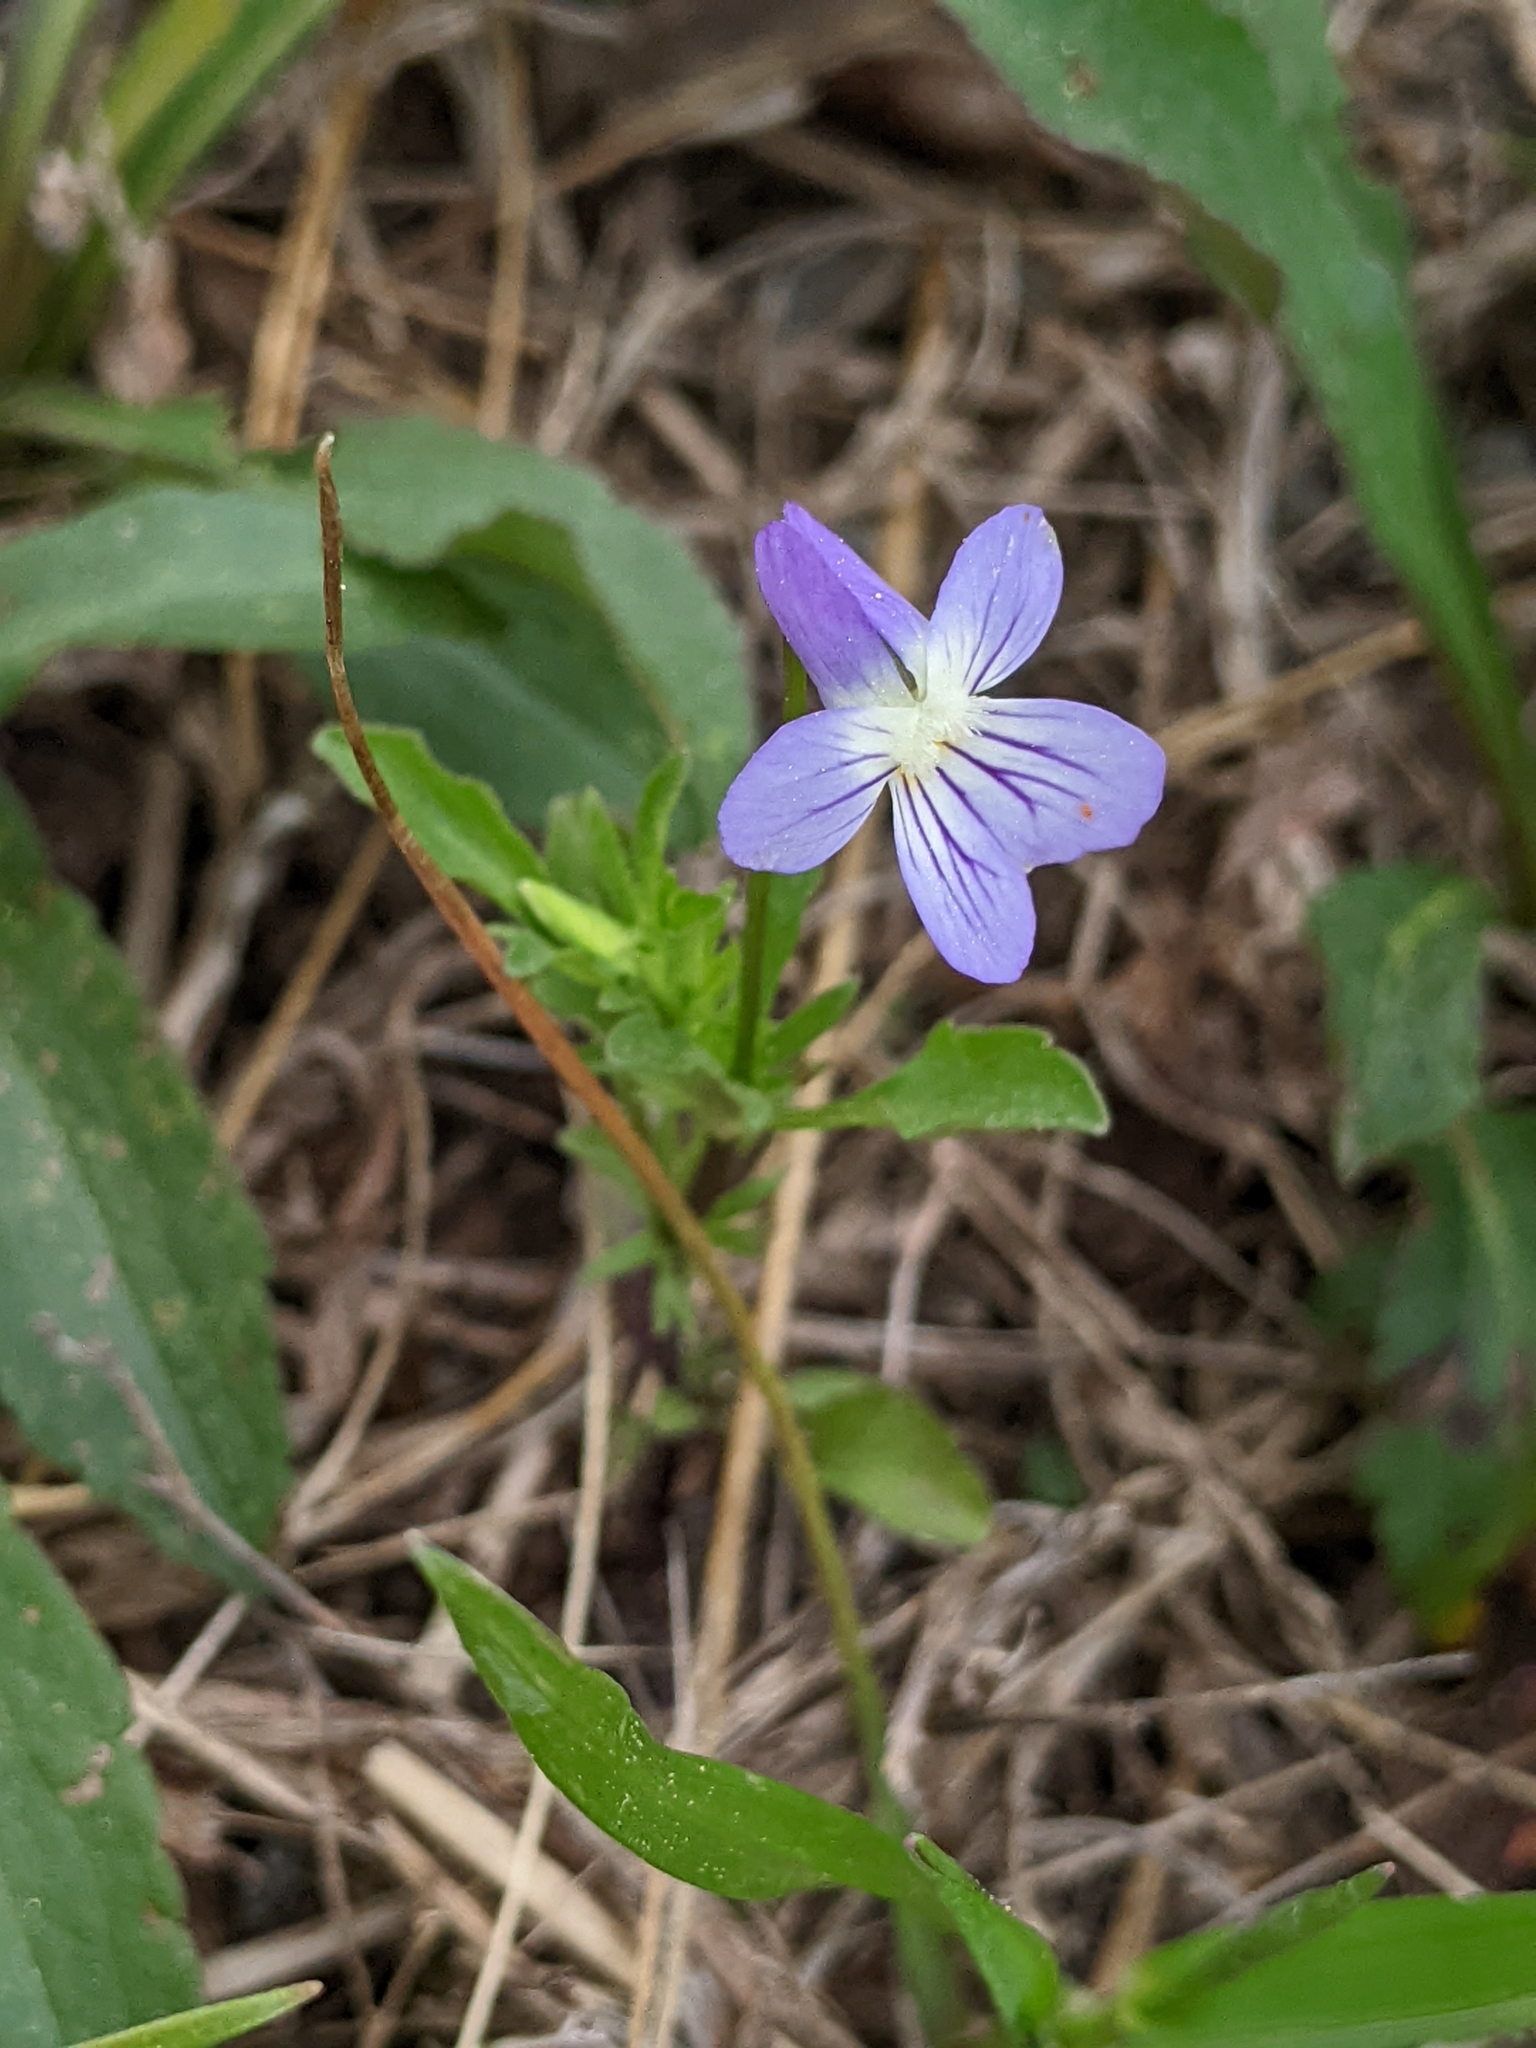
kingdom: Plantae
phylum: Tracheophyta
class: Magnoliopsida
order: Malpighiales
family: Violaceae
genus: Viola
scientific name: Viola rafinesquei
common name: American field pansy
